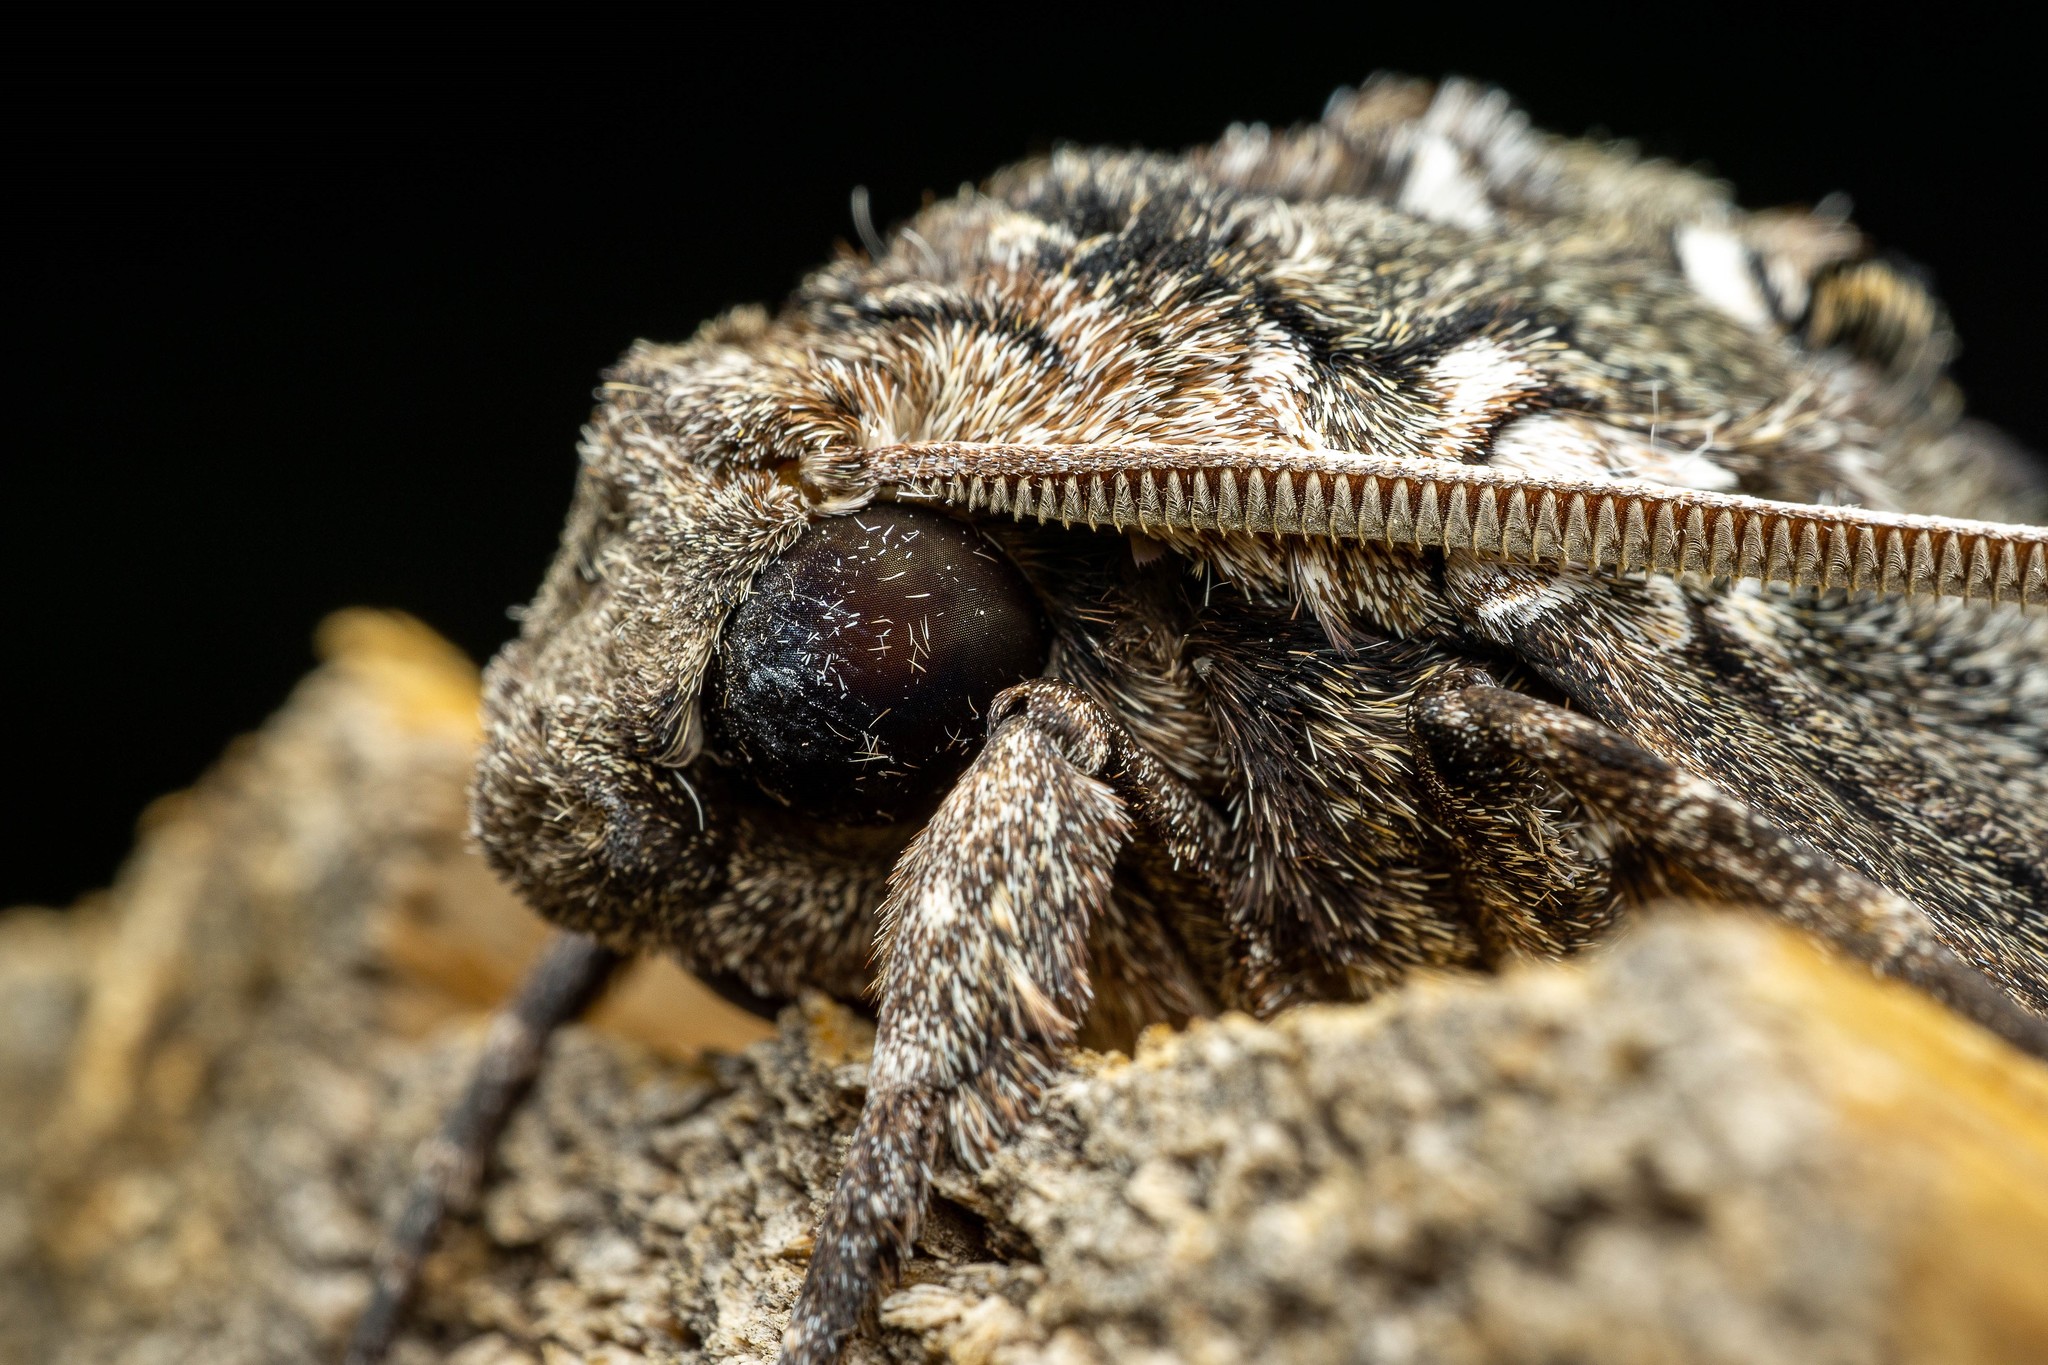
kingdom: Animalia
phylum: Arthropoda
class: Insecta
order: Lepidoptera
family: Sphingidae
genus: Manduca
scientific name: Manduca sexta
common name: Carolina sphinx
